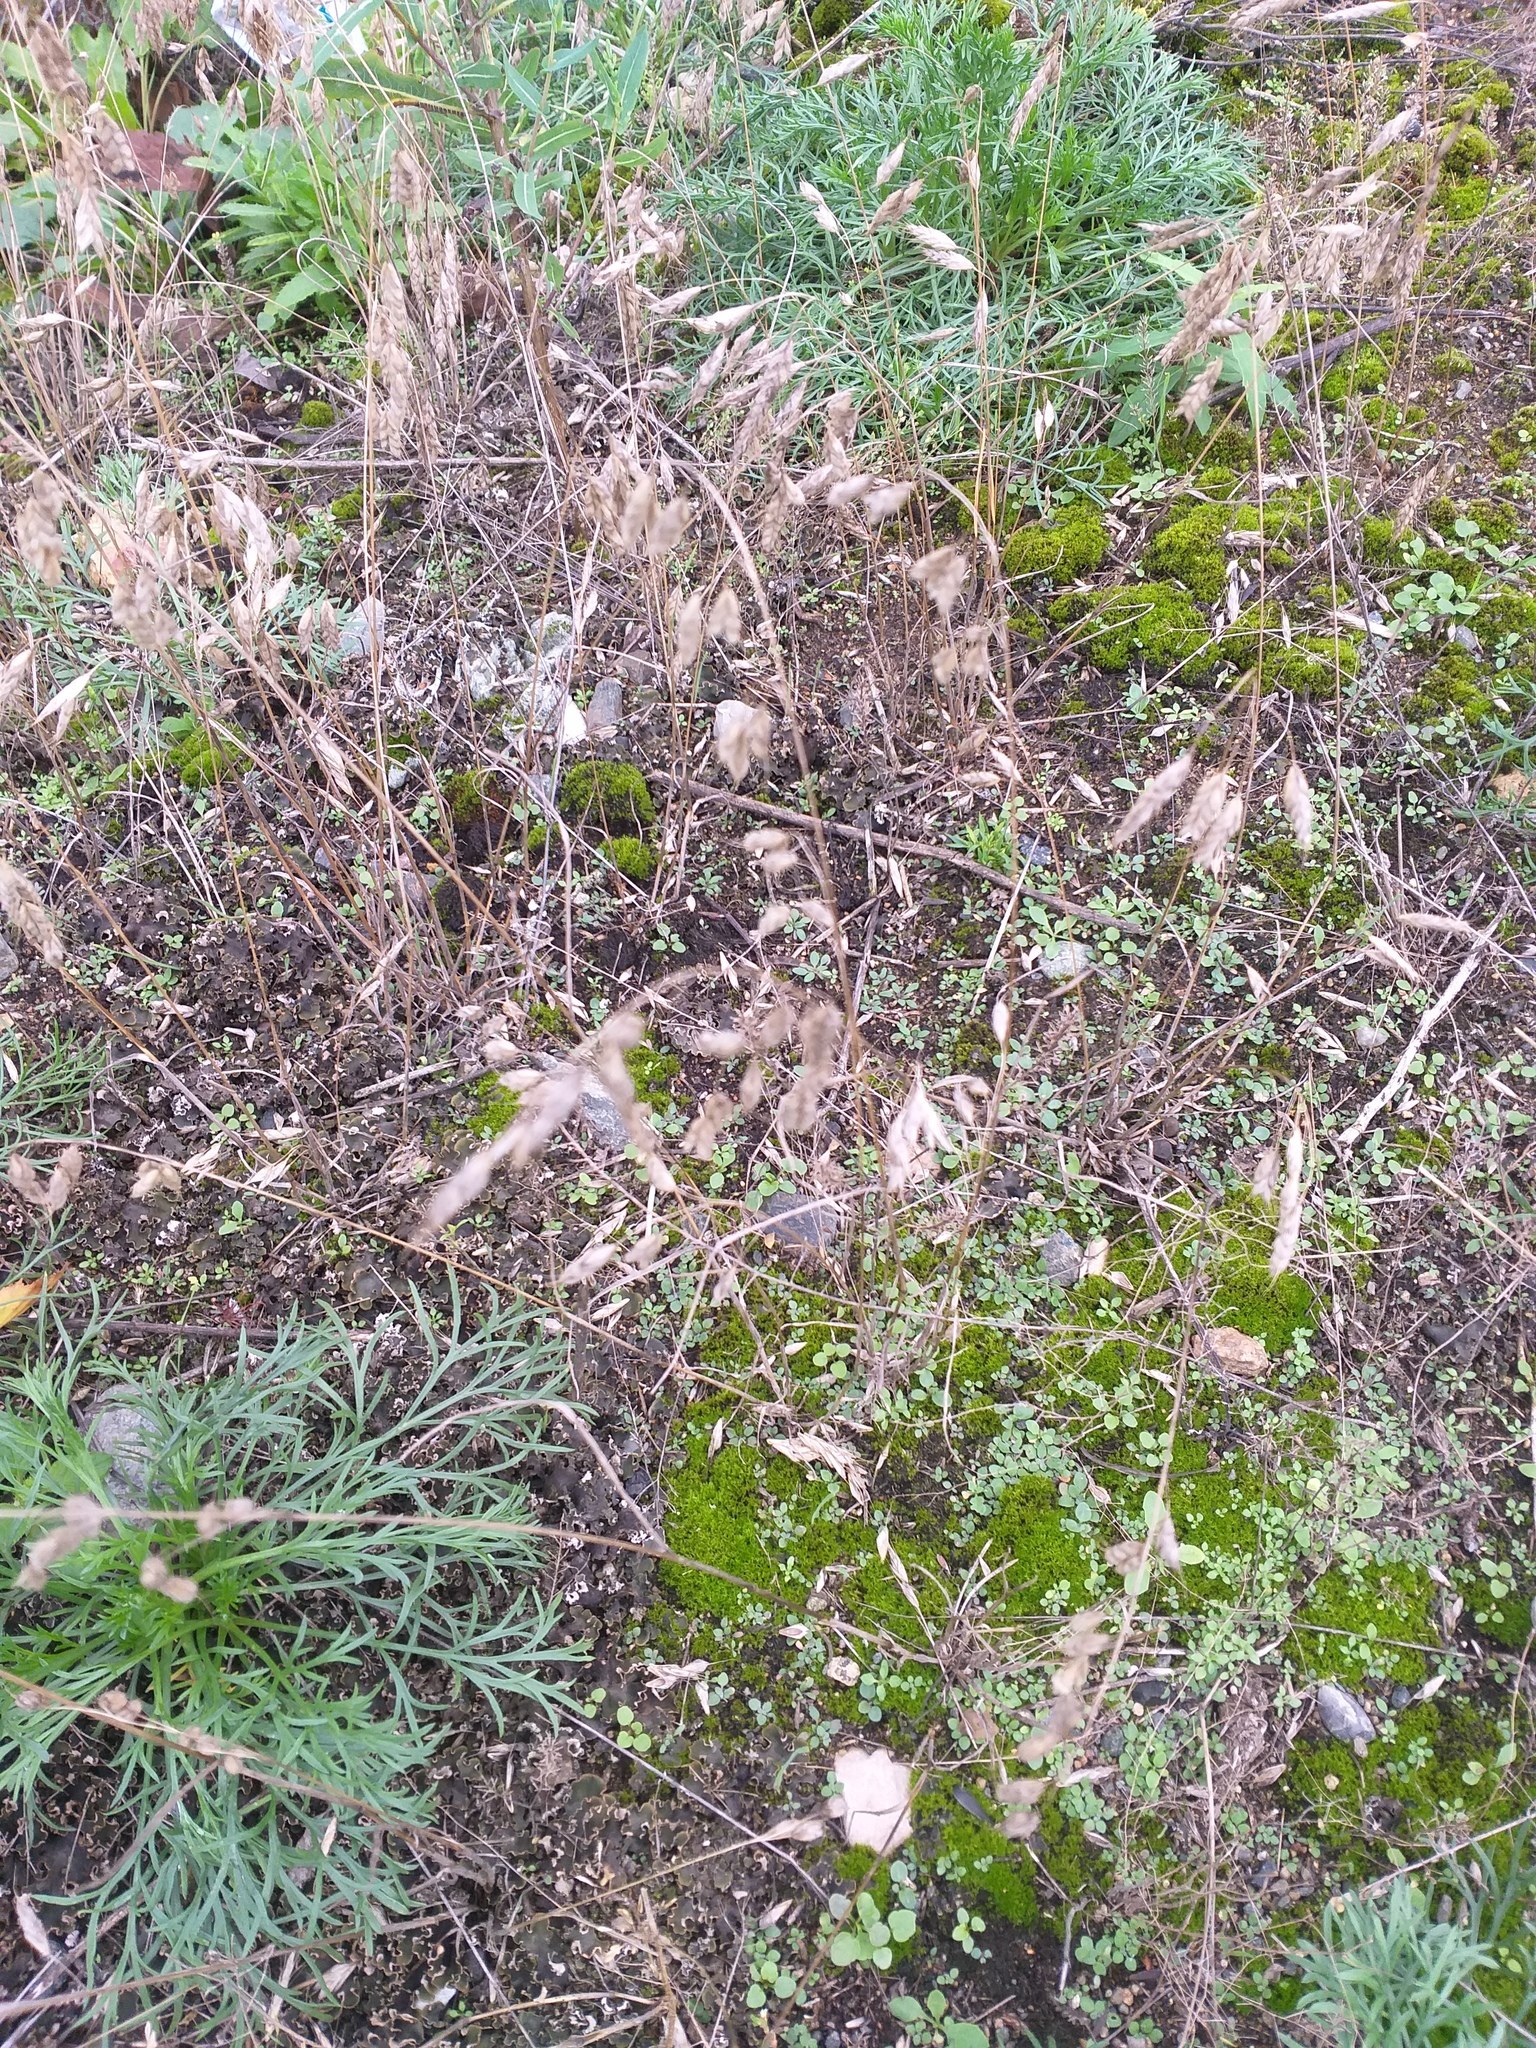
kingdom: Plantae
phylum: Tracheophyta
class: Liliopsida
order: Poales
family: Poaceae
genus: Bromus
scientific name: Bromus squarrosus
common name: Corn brome
